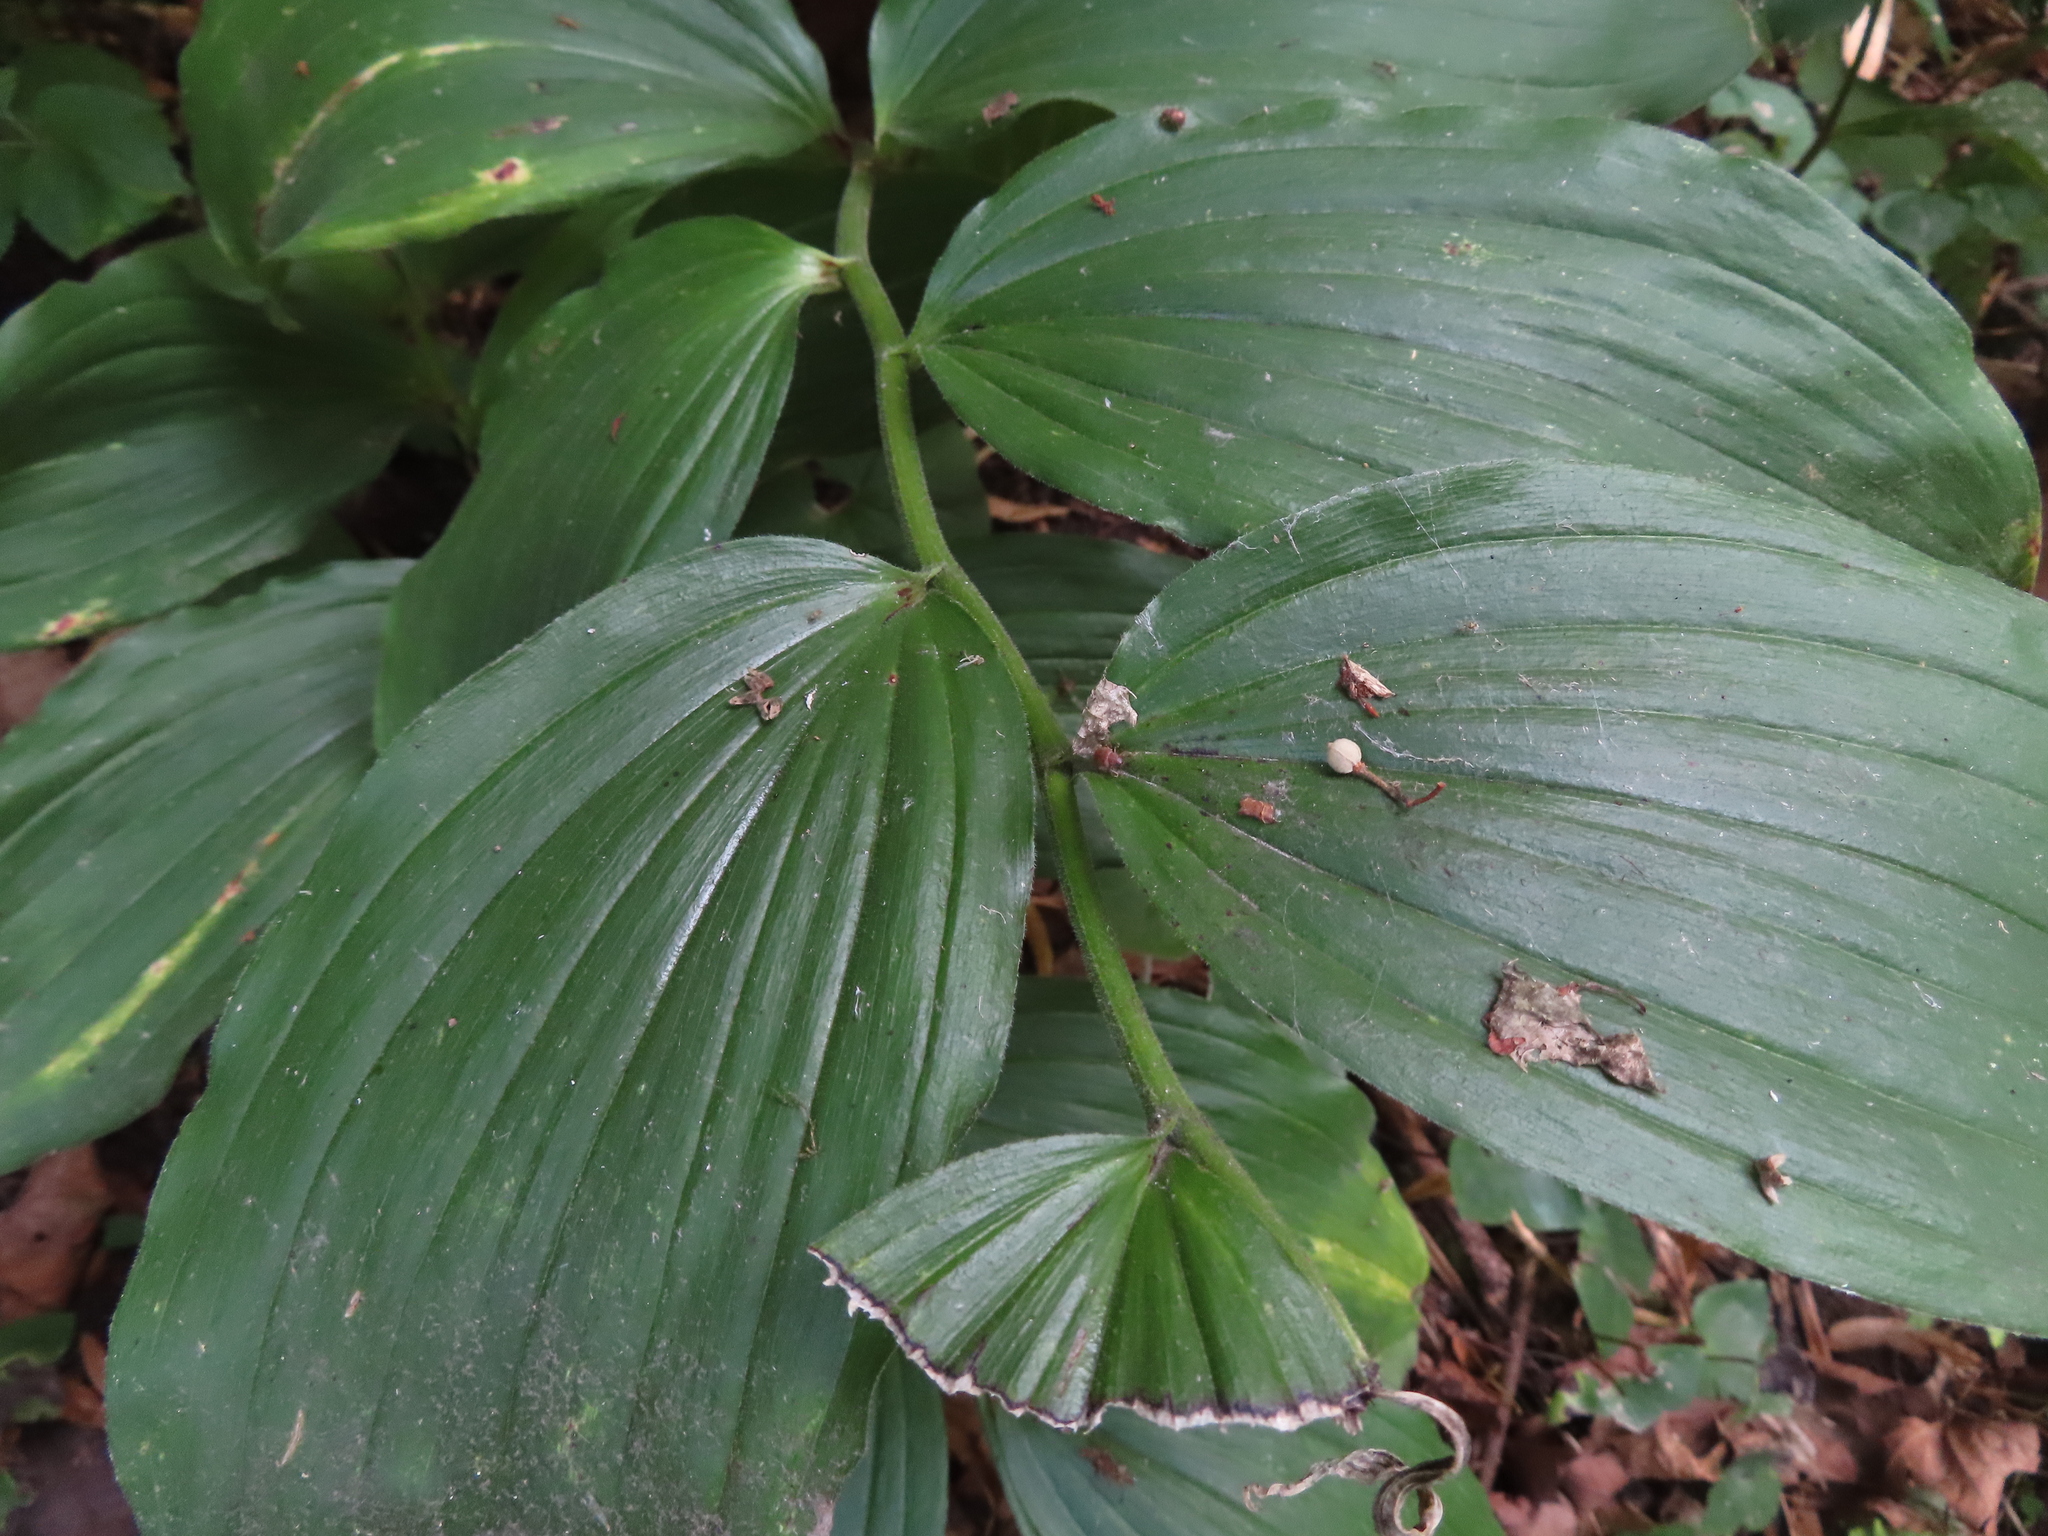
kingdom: Plantae
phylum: Tracheophyta
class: Liliopsida
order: Asparagales
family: Asparagaceae
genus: Maianthemum
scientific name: Maianthemum racemosum
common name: False spikenard
